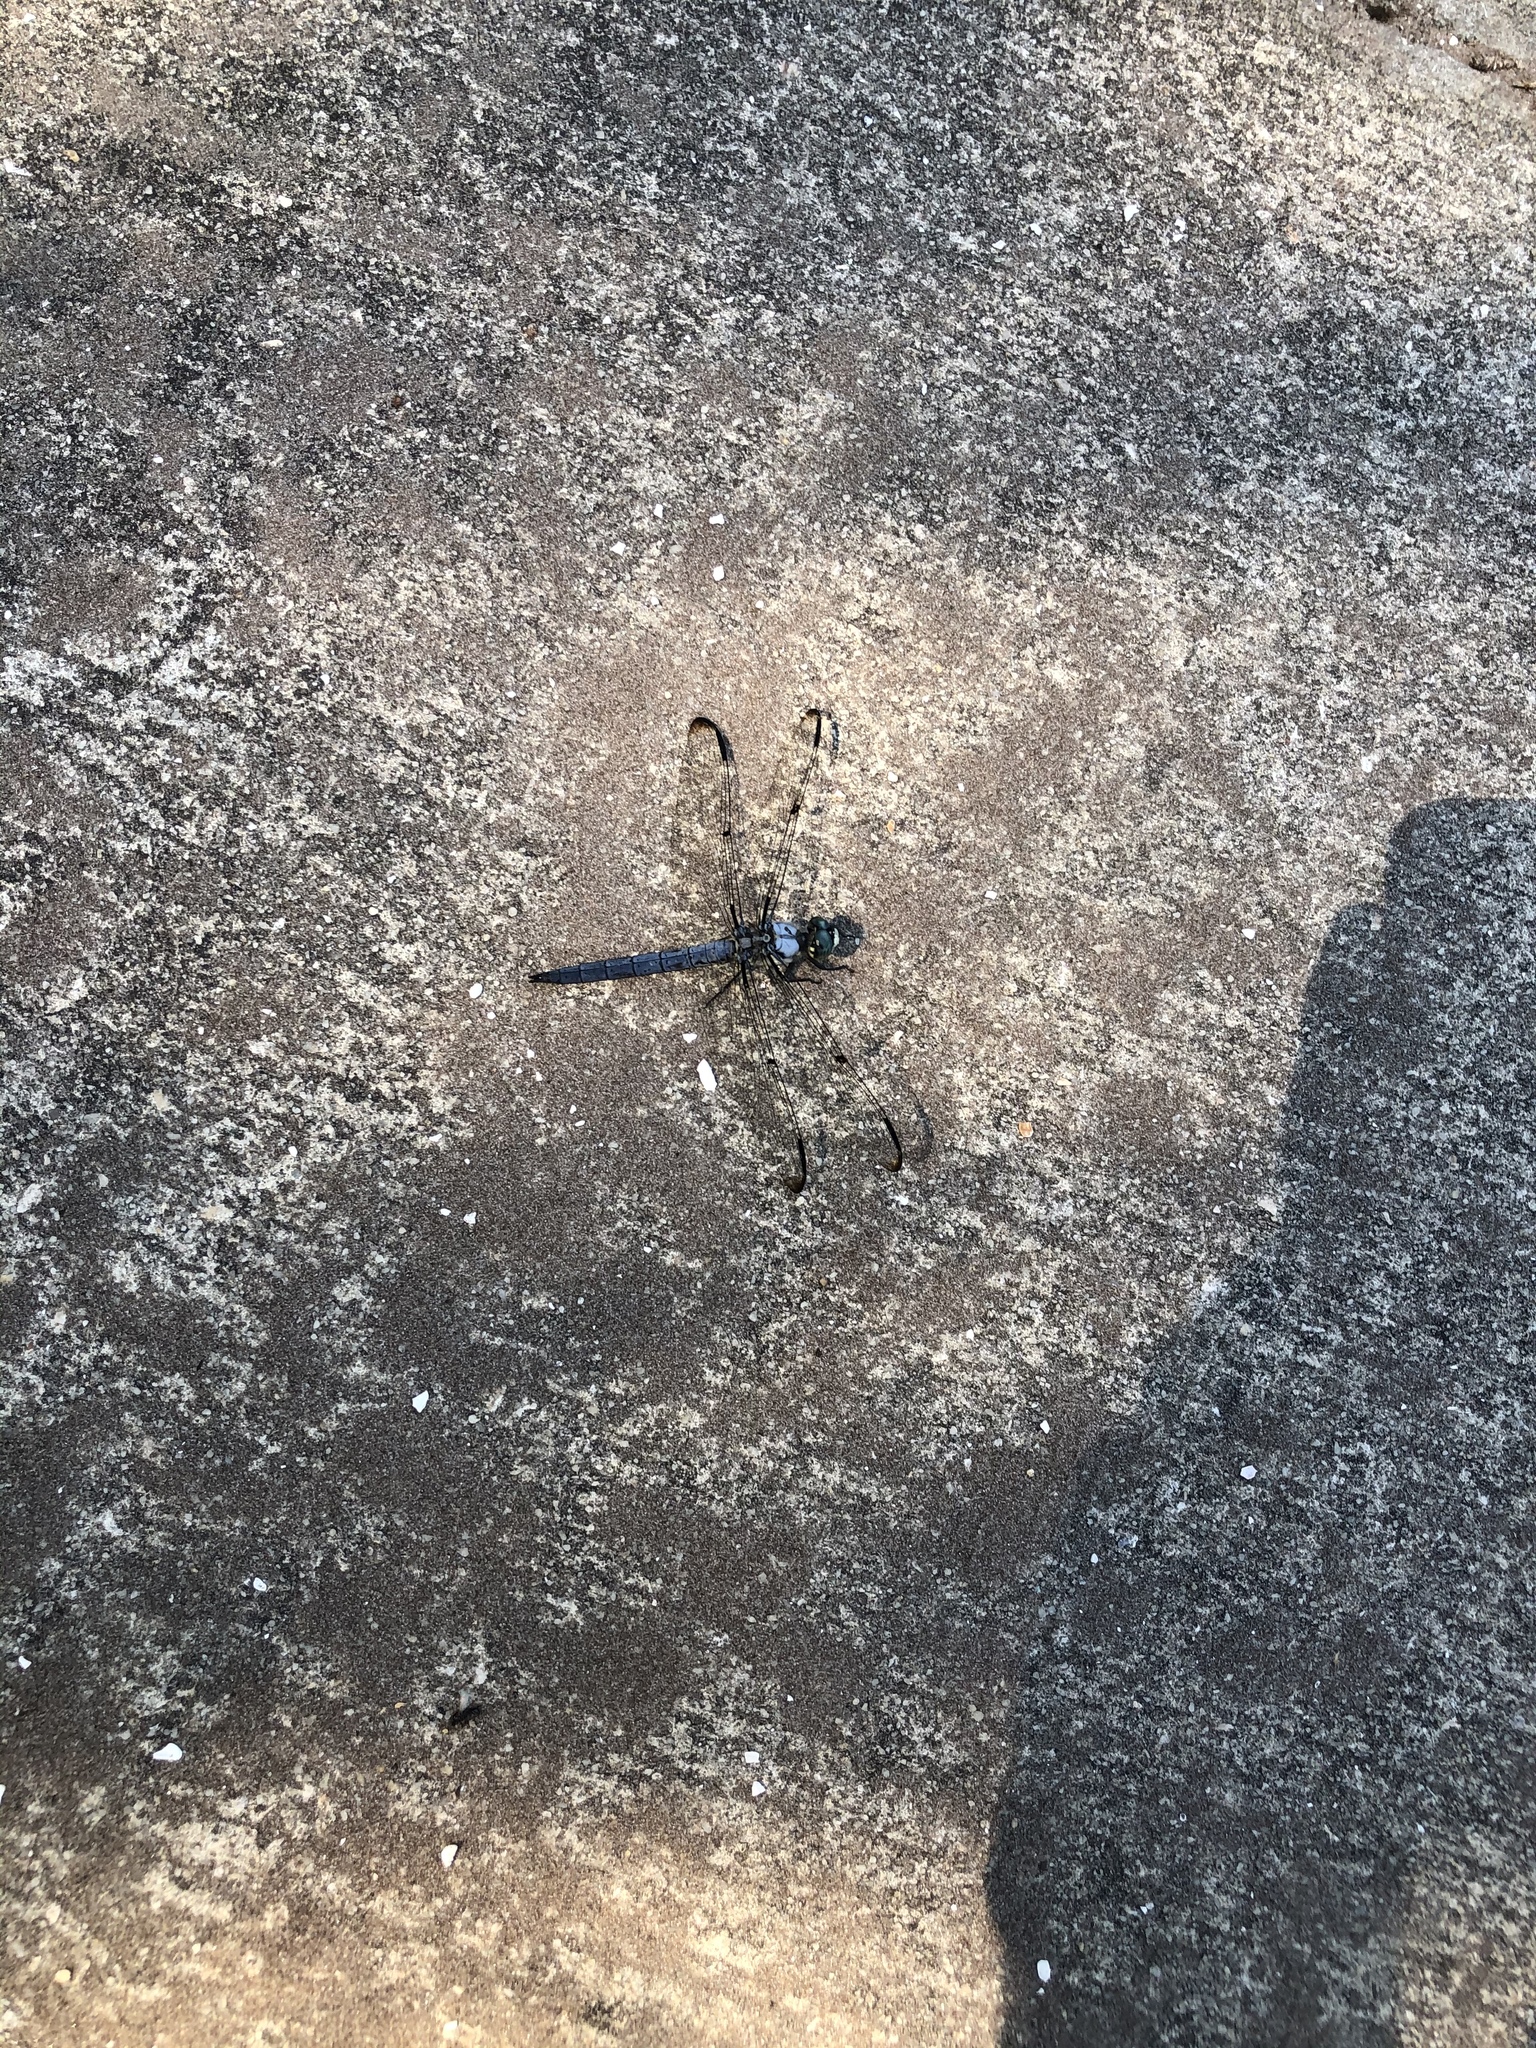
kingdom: Animalia
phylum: Arthropoda
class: Insecta
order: Odonata
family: Libellulidae
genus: Libellula
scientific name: Libellula vibrans
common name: Great blue skimmer
